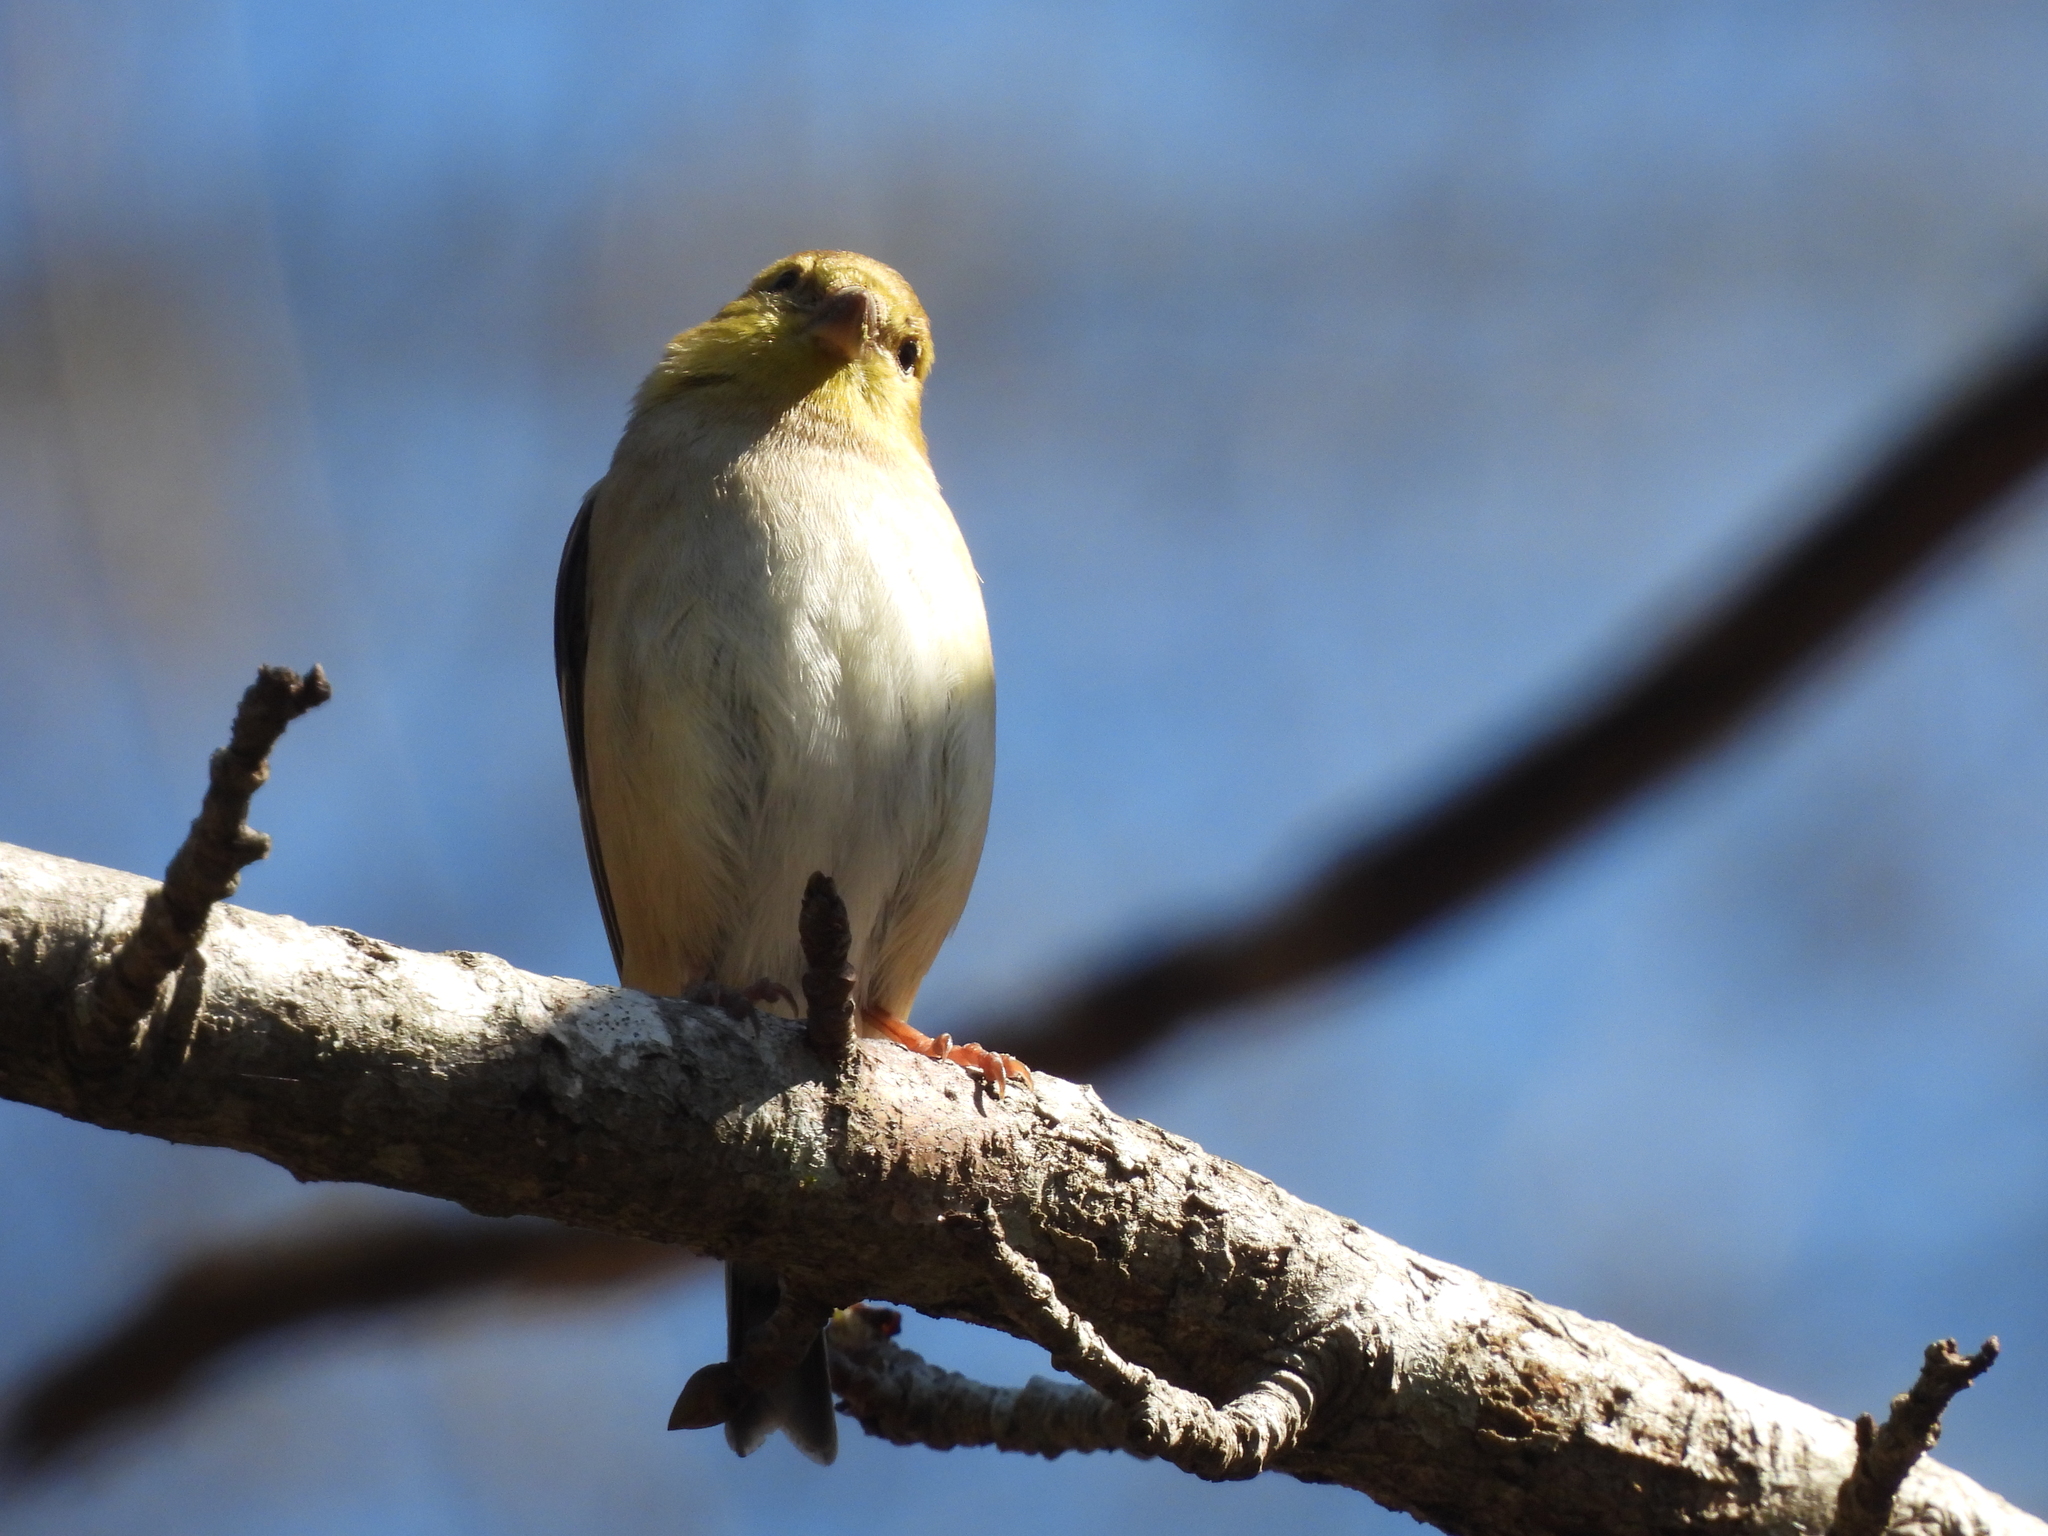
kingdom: Animalia
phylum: Chordata
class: Aves
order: Passeriformes
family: Fringillidae
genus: Spinus
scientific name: Spinus tristis
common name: American goldfinch
